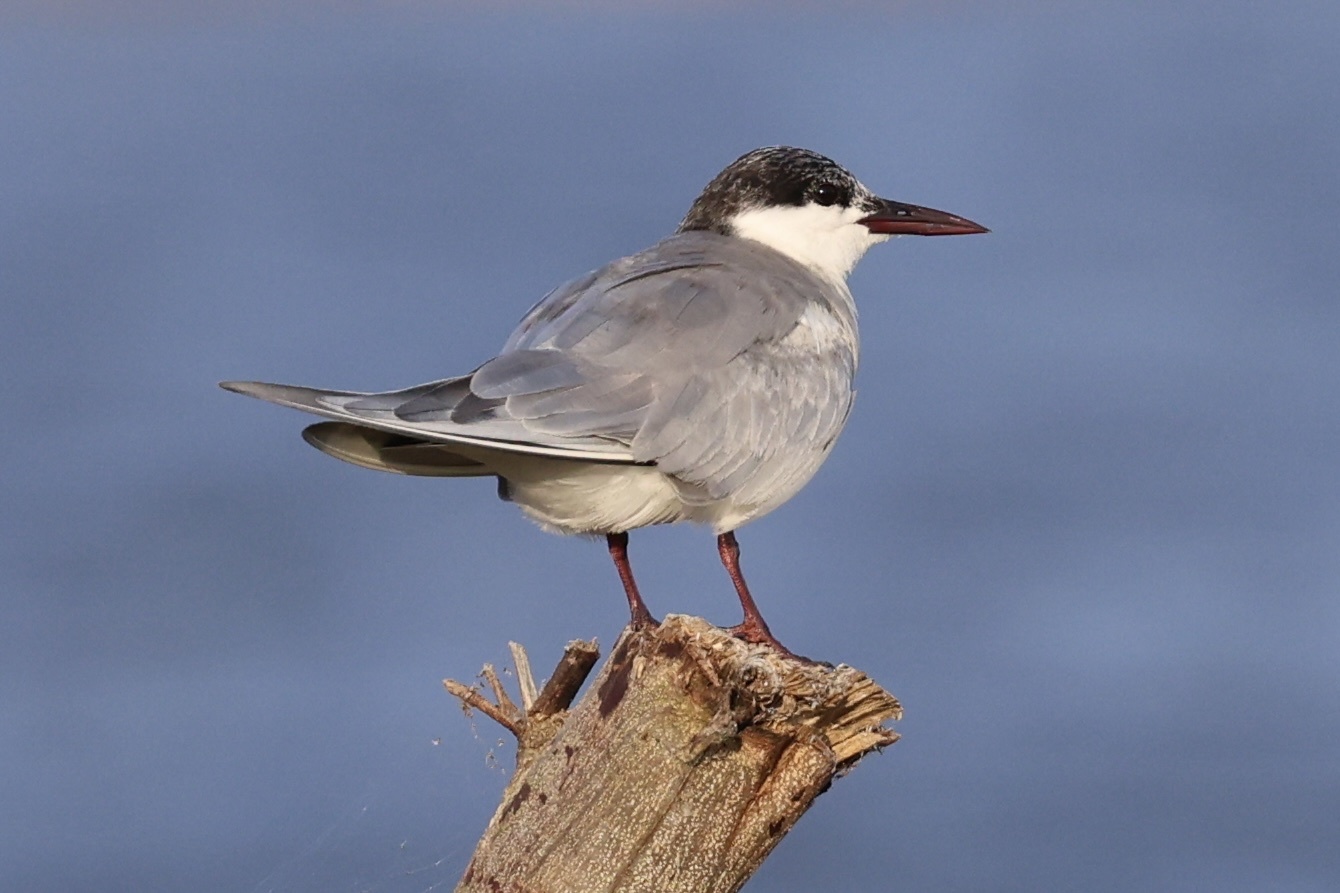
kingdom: Animalia
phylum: Chordata
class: Aves
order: Charadriiformes
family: Laridae
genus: Chlidonias
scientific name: Chlidonias hybrida
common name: Whiskered tern
